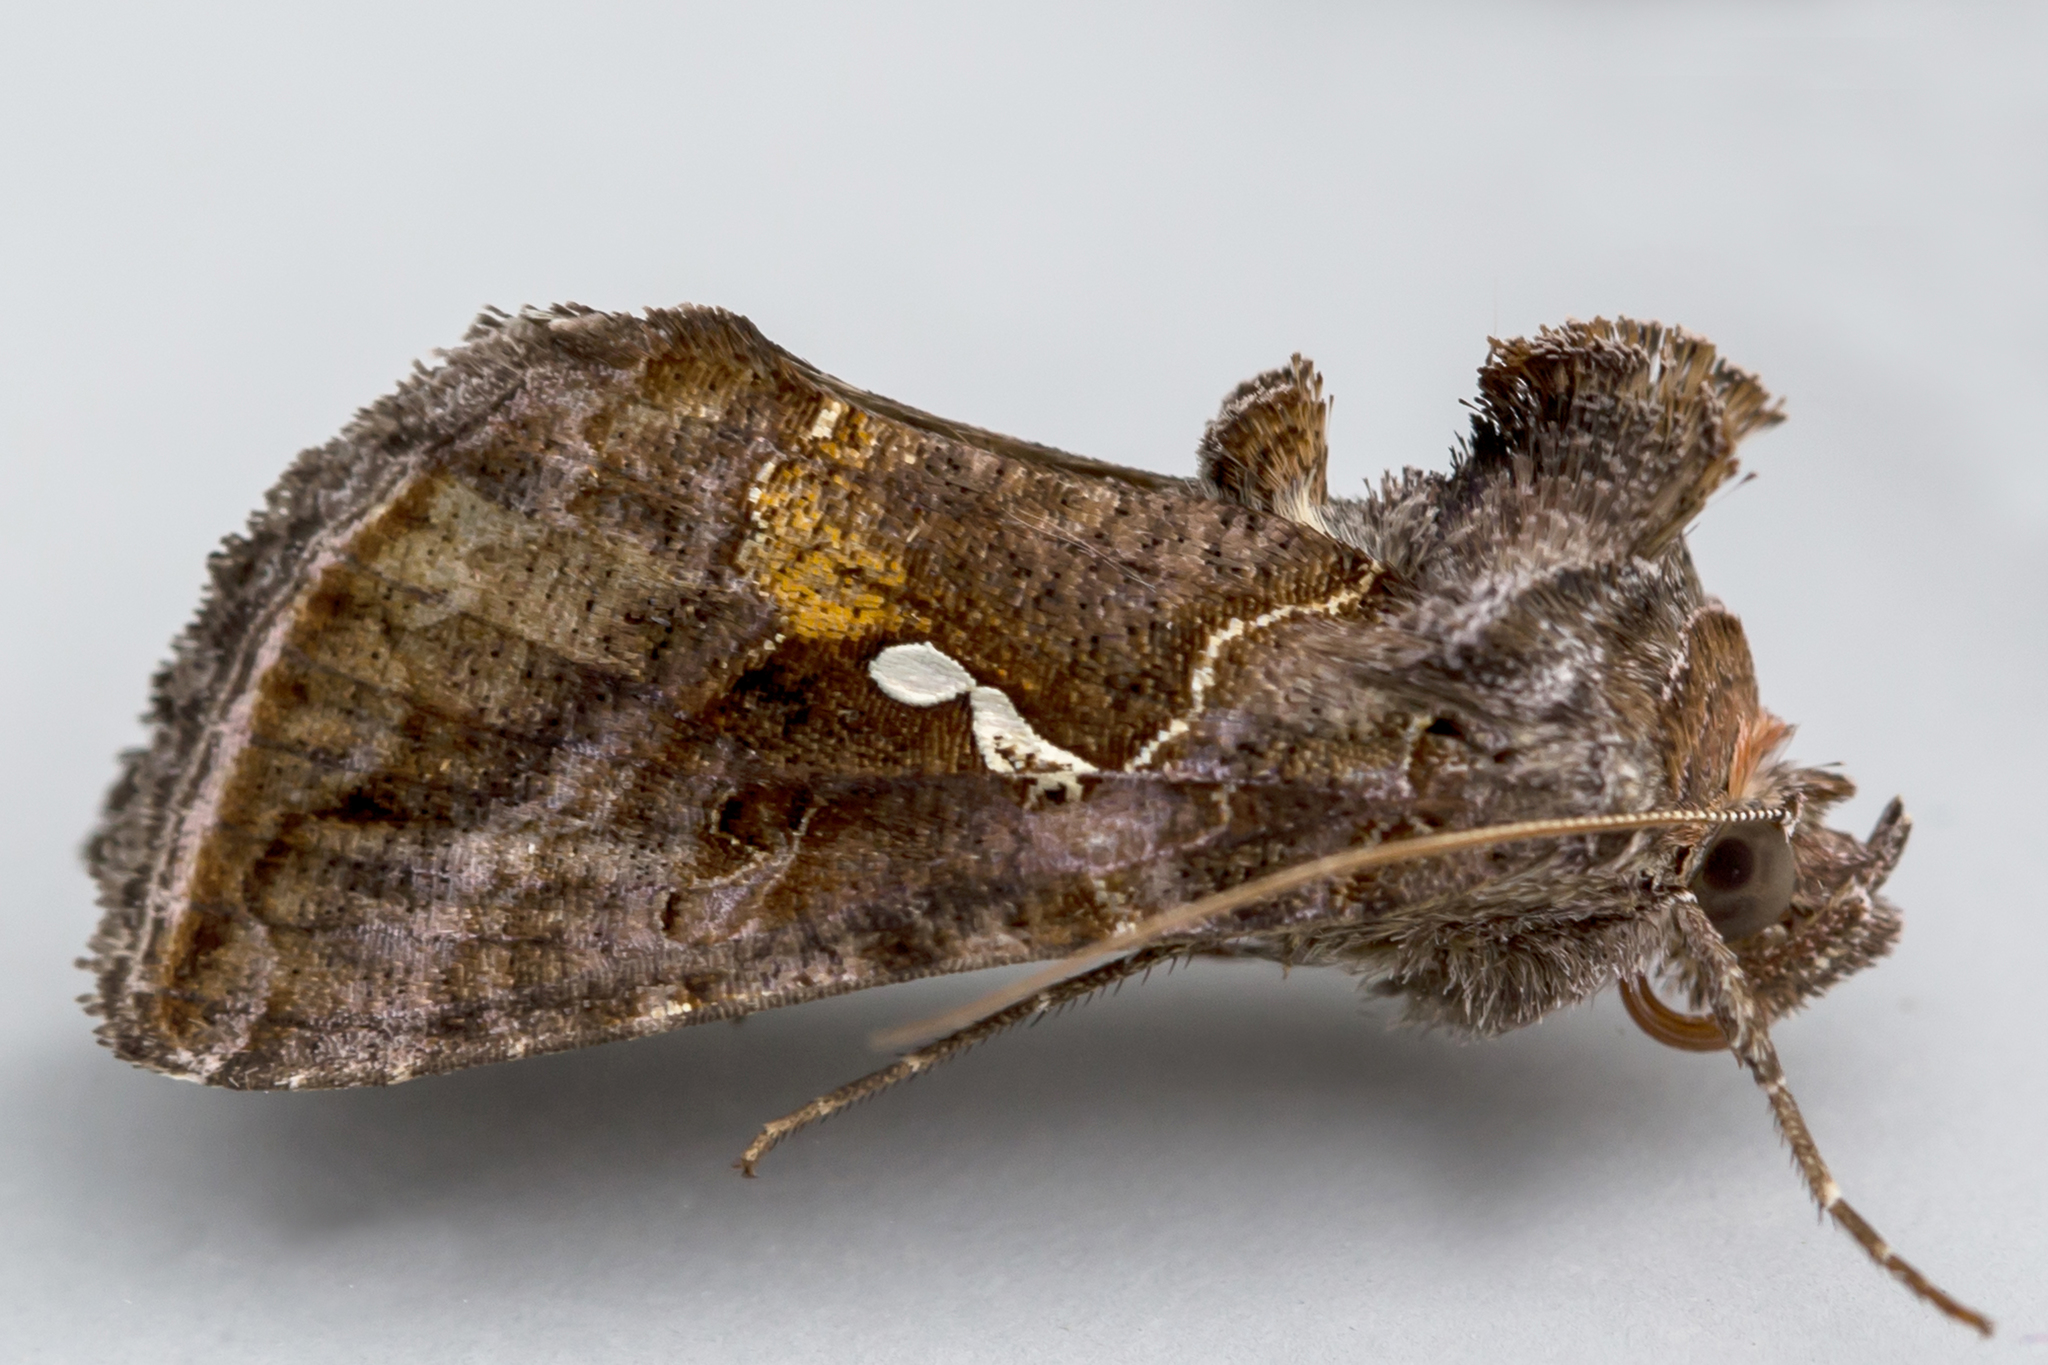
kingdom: Animalia
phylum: Arthropoda
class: Insecta
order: Lepidoptera
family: Noctuidae
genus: Autographa
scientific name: Autographa precationis
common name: Common looper moth
